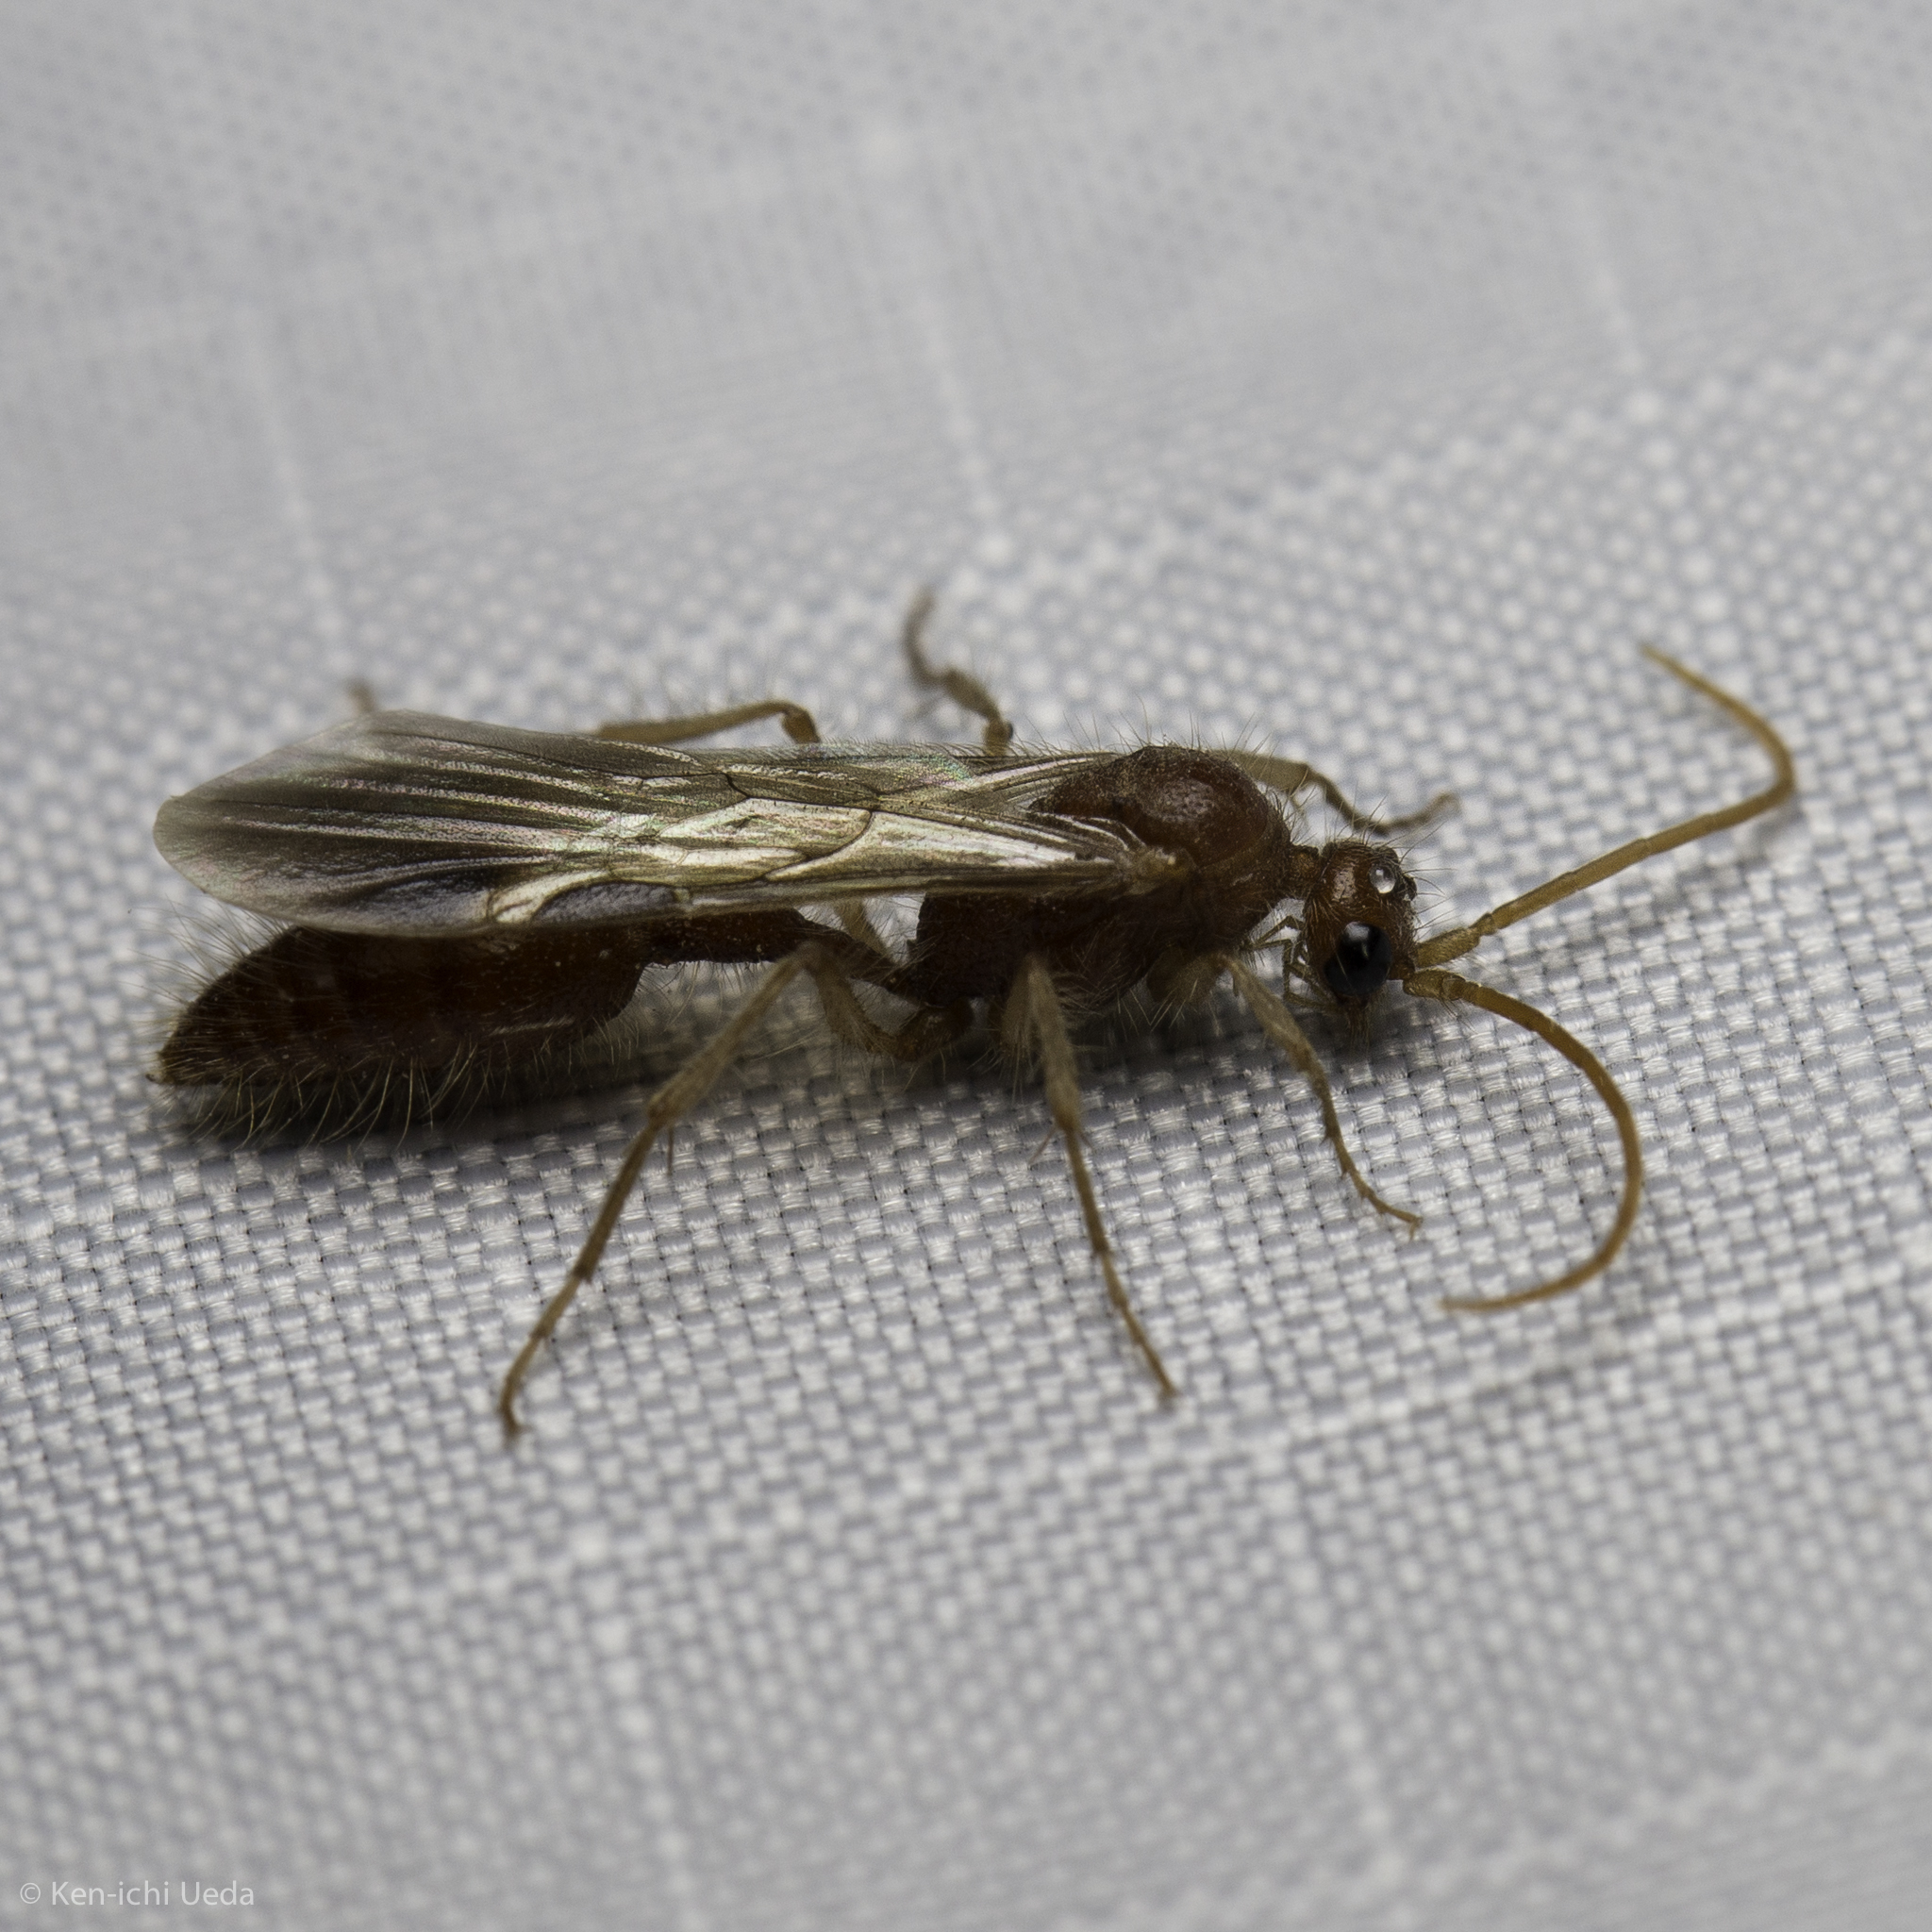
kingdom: Animalia
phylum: Arthropoda
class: Insecta
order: Hymenoptera
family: Chyphotidae
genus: Chyphotes
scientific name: Chyphotes
